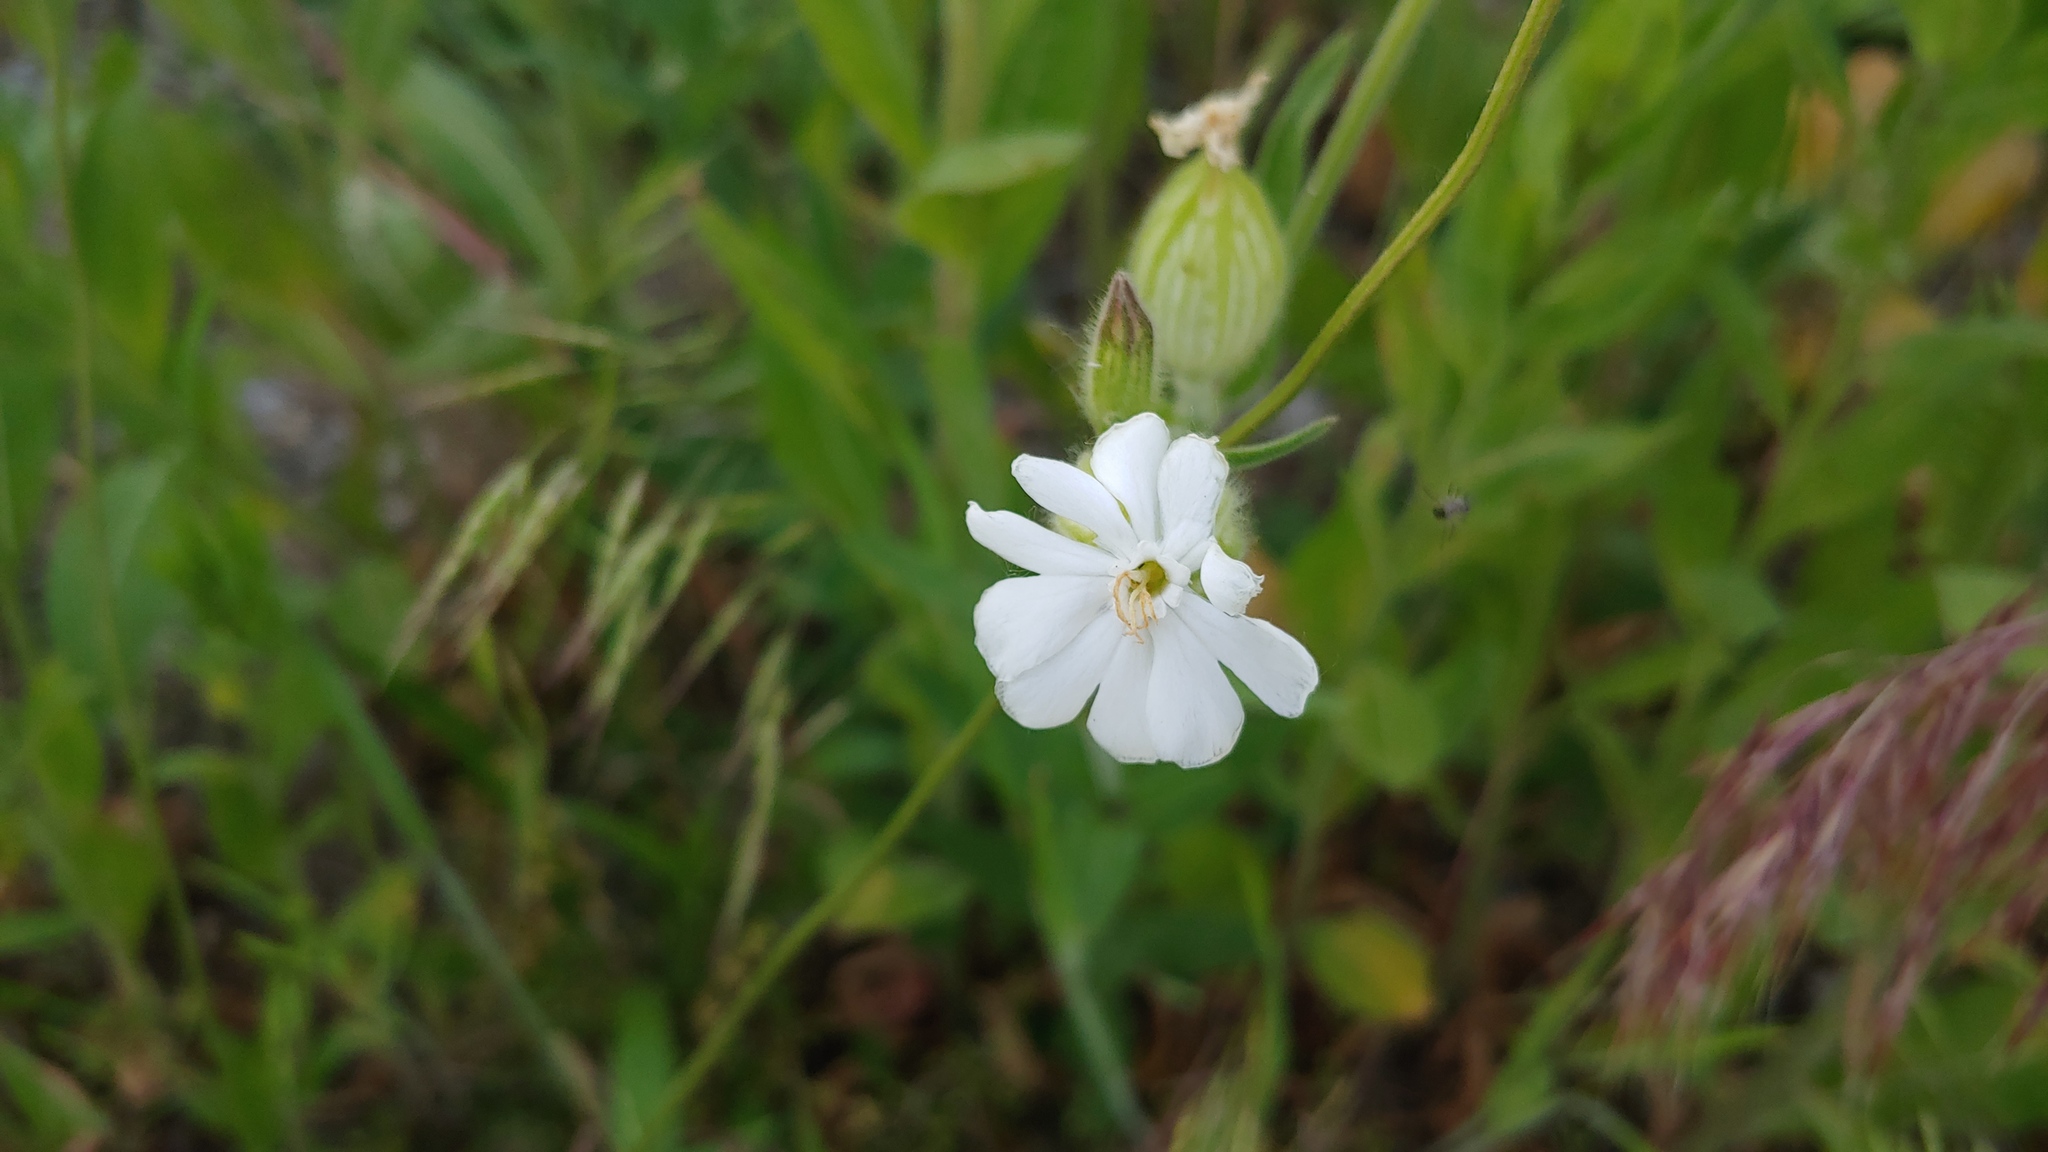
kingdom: Plantae
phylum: Tracheophyta
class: Magnoliopsida
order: Caryophyllales
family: Caryophyllaceae
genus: Silene
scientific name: Silene latifolia
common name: White campion
